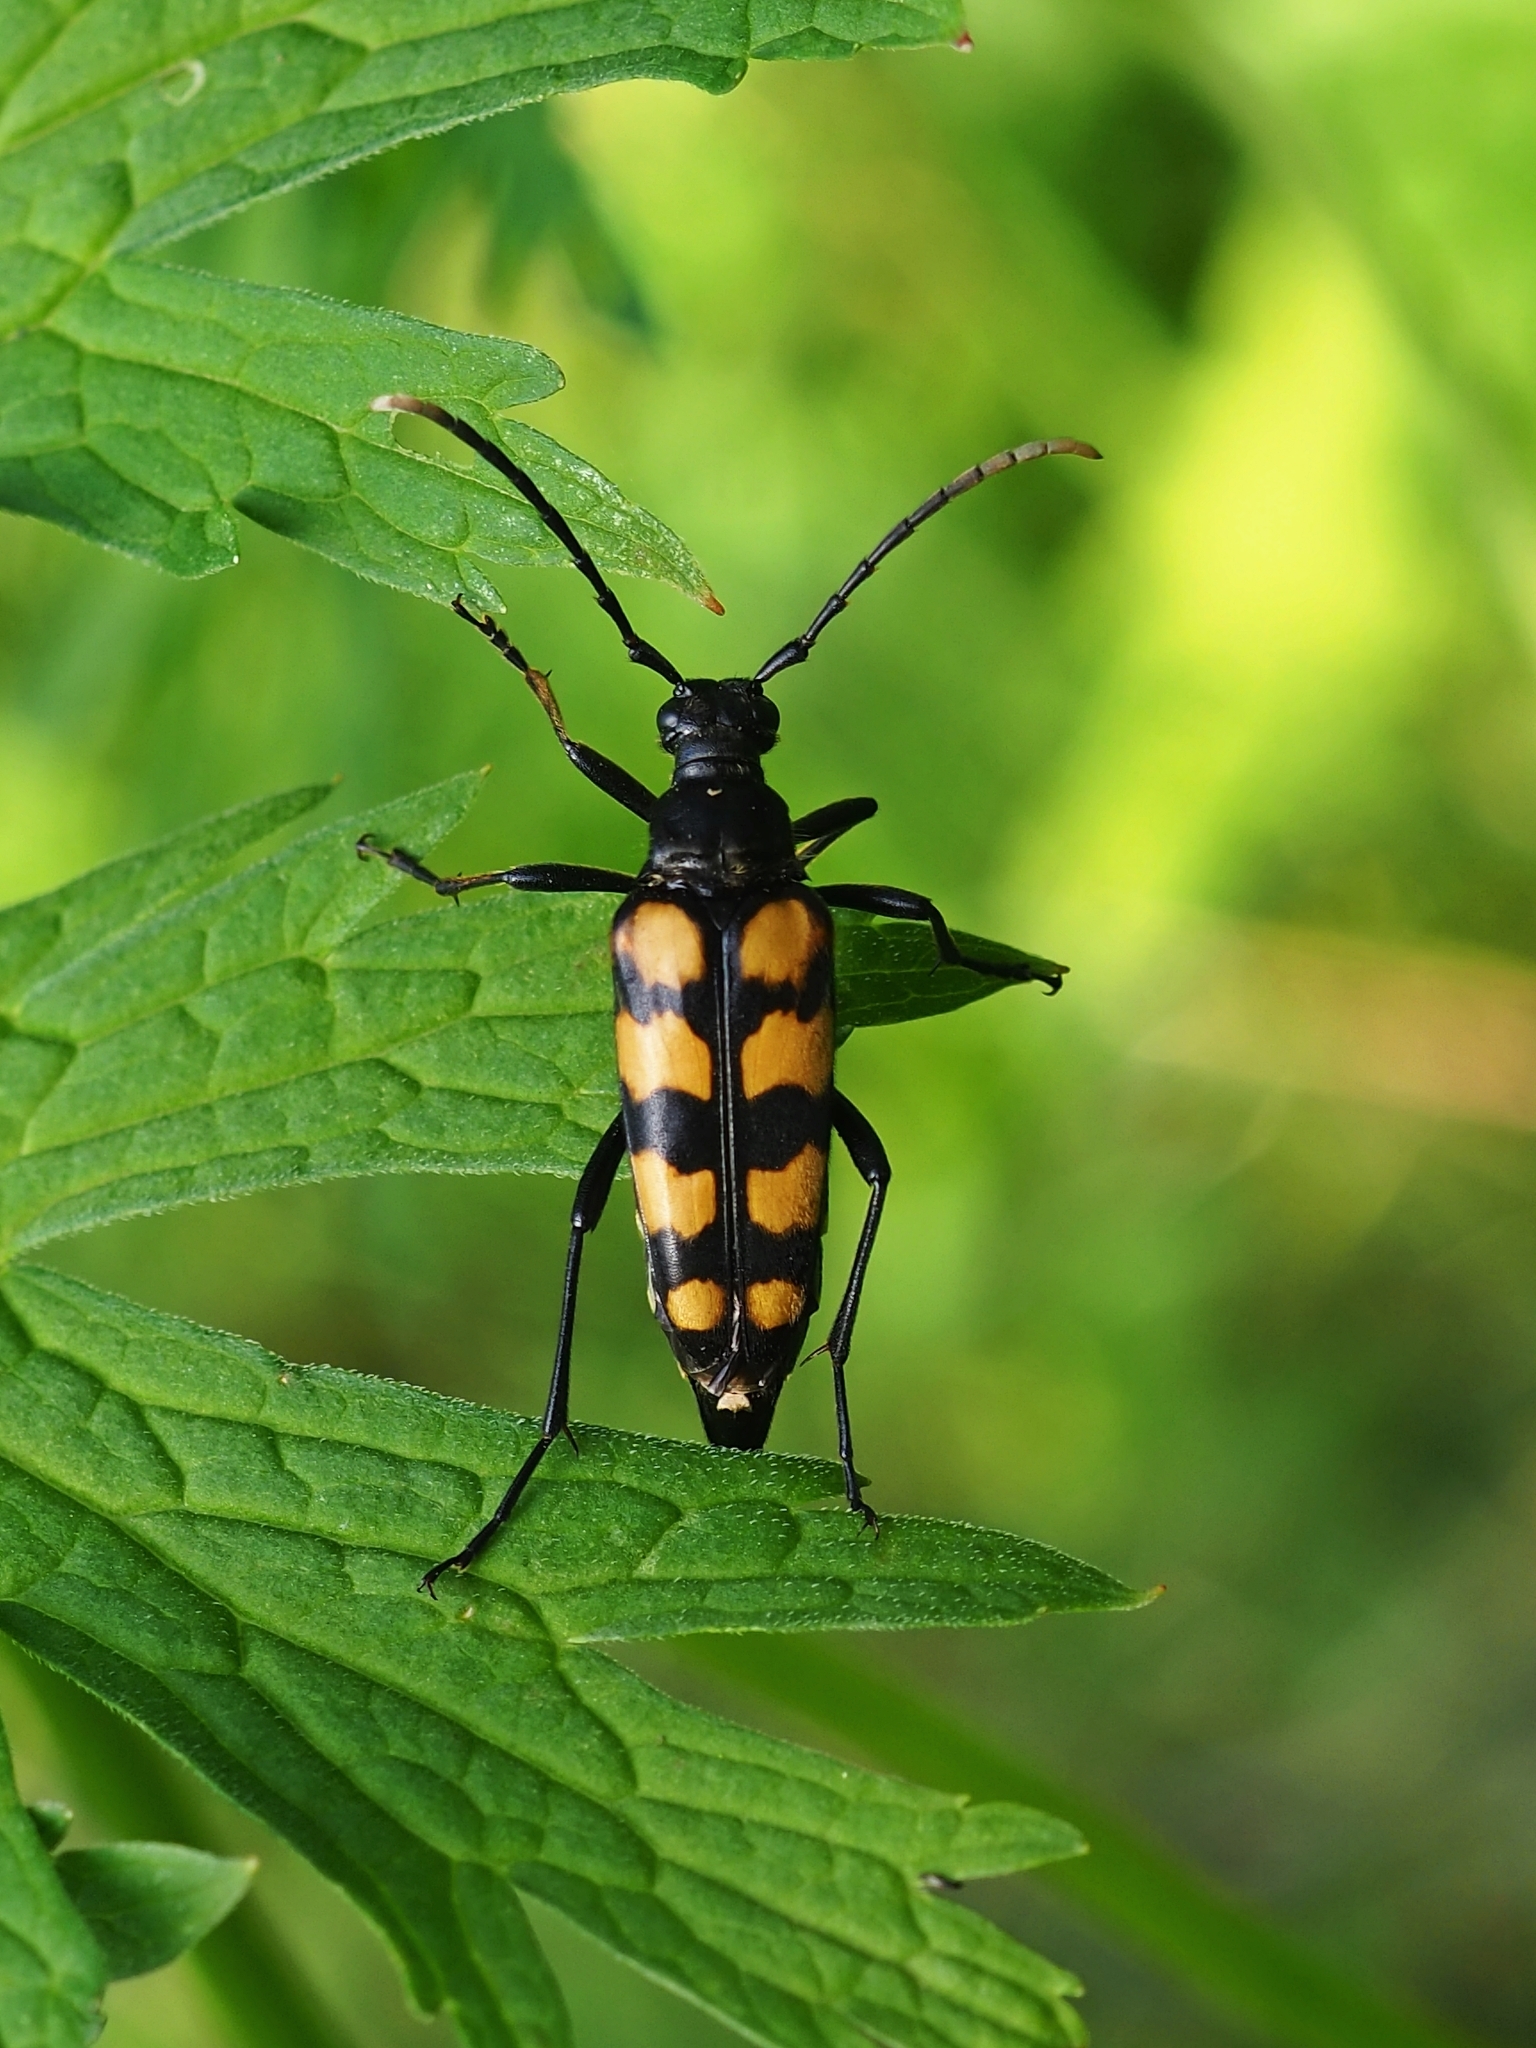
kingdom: Animalia
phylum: Arthropoda
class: Insecta
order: Coleoptera
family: Cerambycidae
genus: Leptura
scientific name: Leptura quadrifasciata
